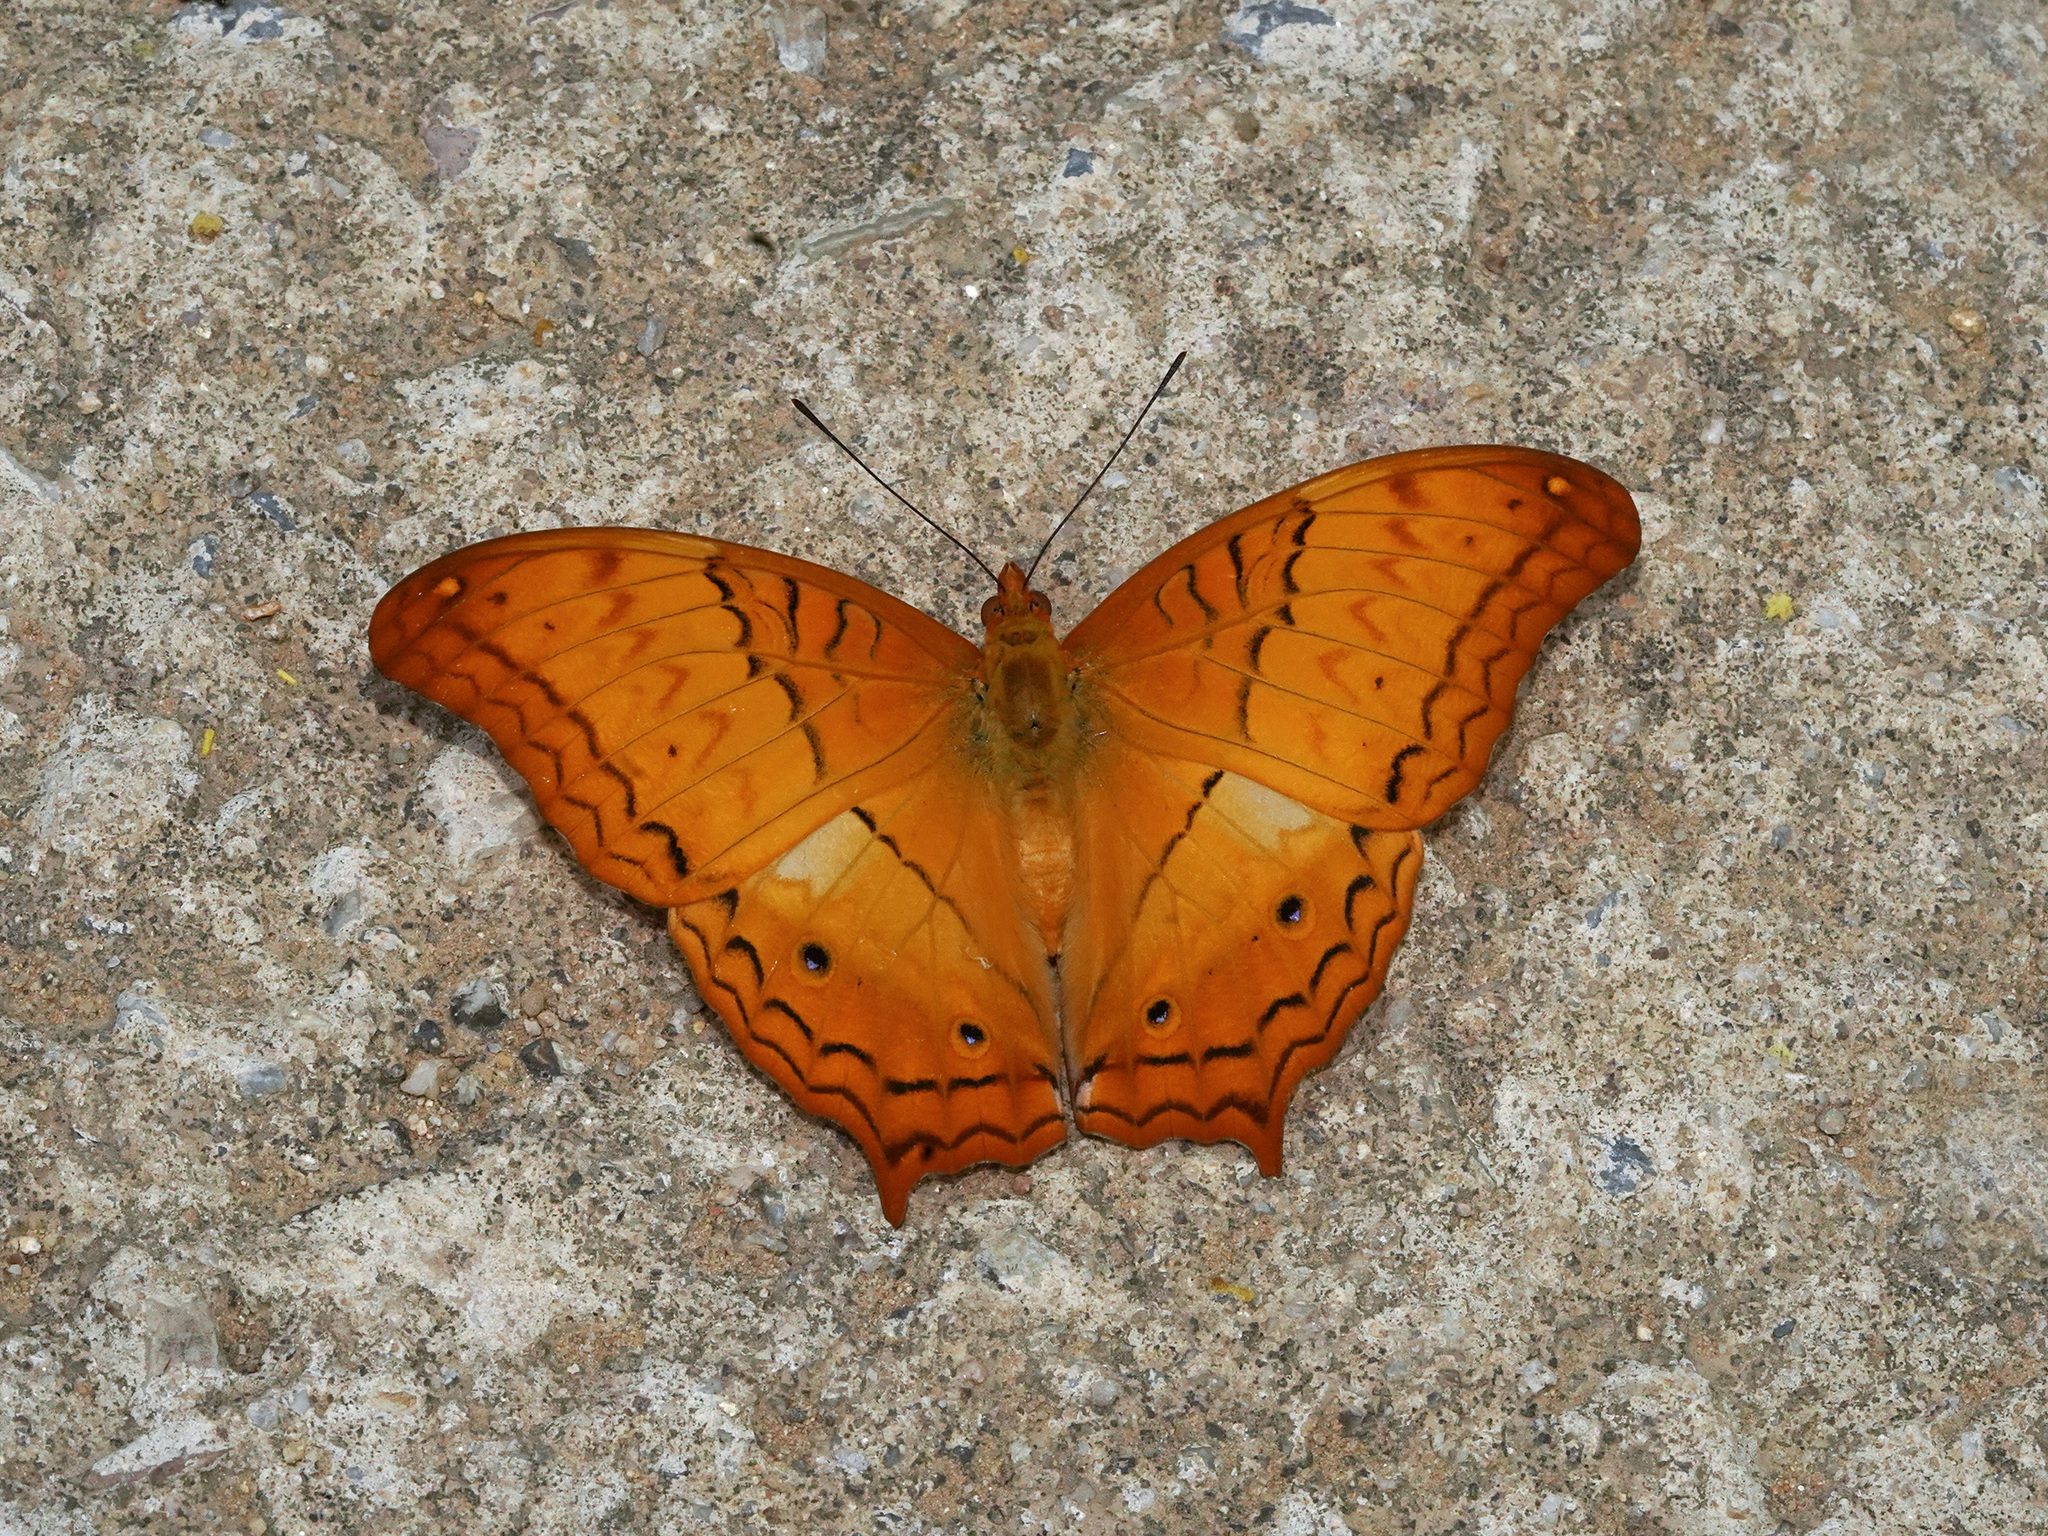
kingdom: Animalia
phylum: Arthropoda
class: Insecta
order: Lepidoptera
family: Nymphalidae
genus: Vindula
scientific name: Vindula erota
